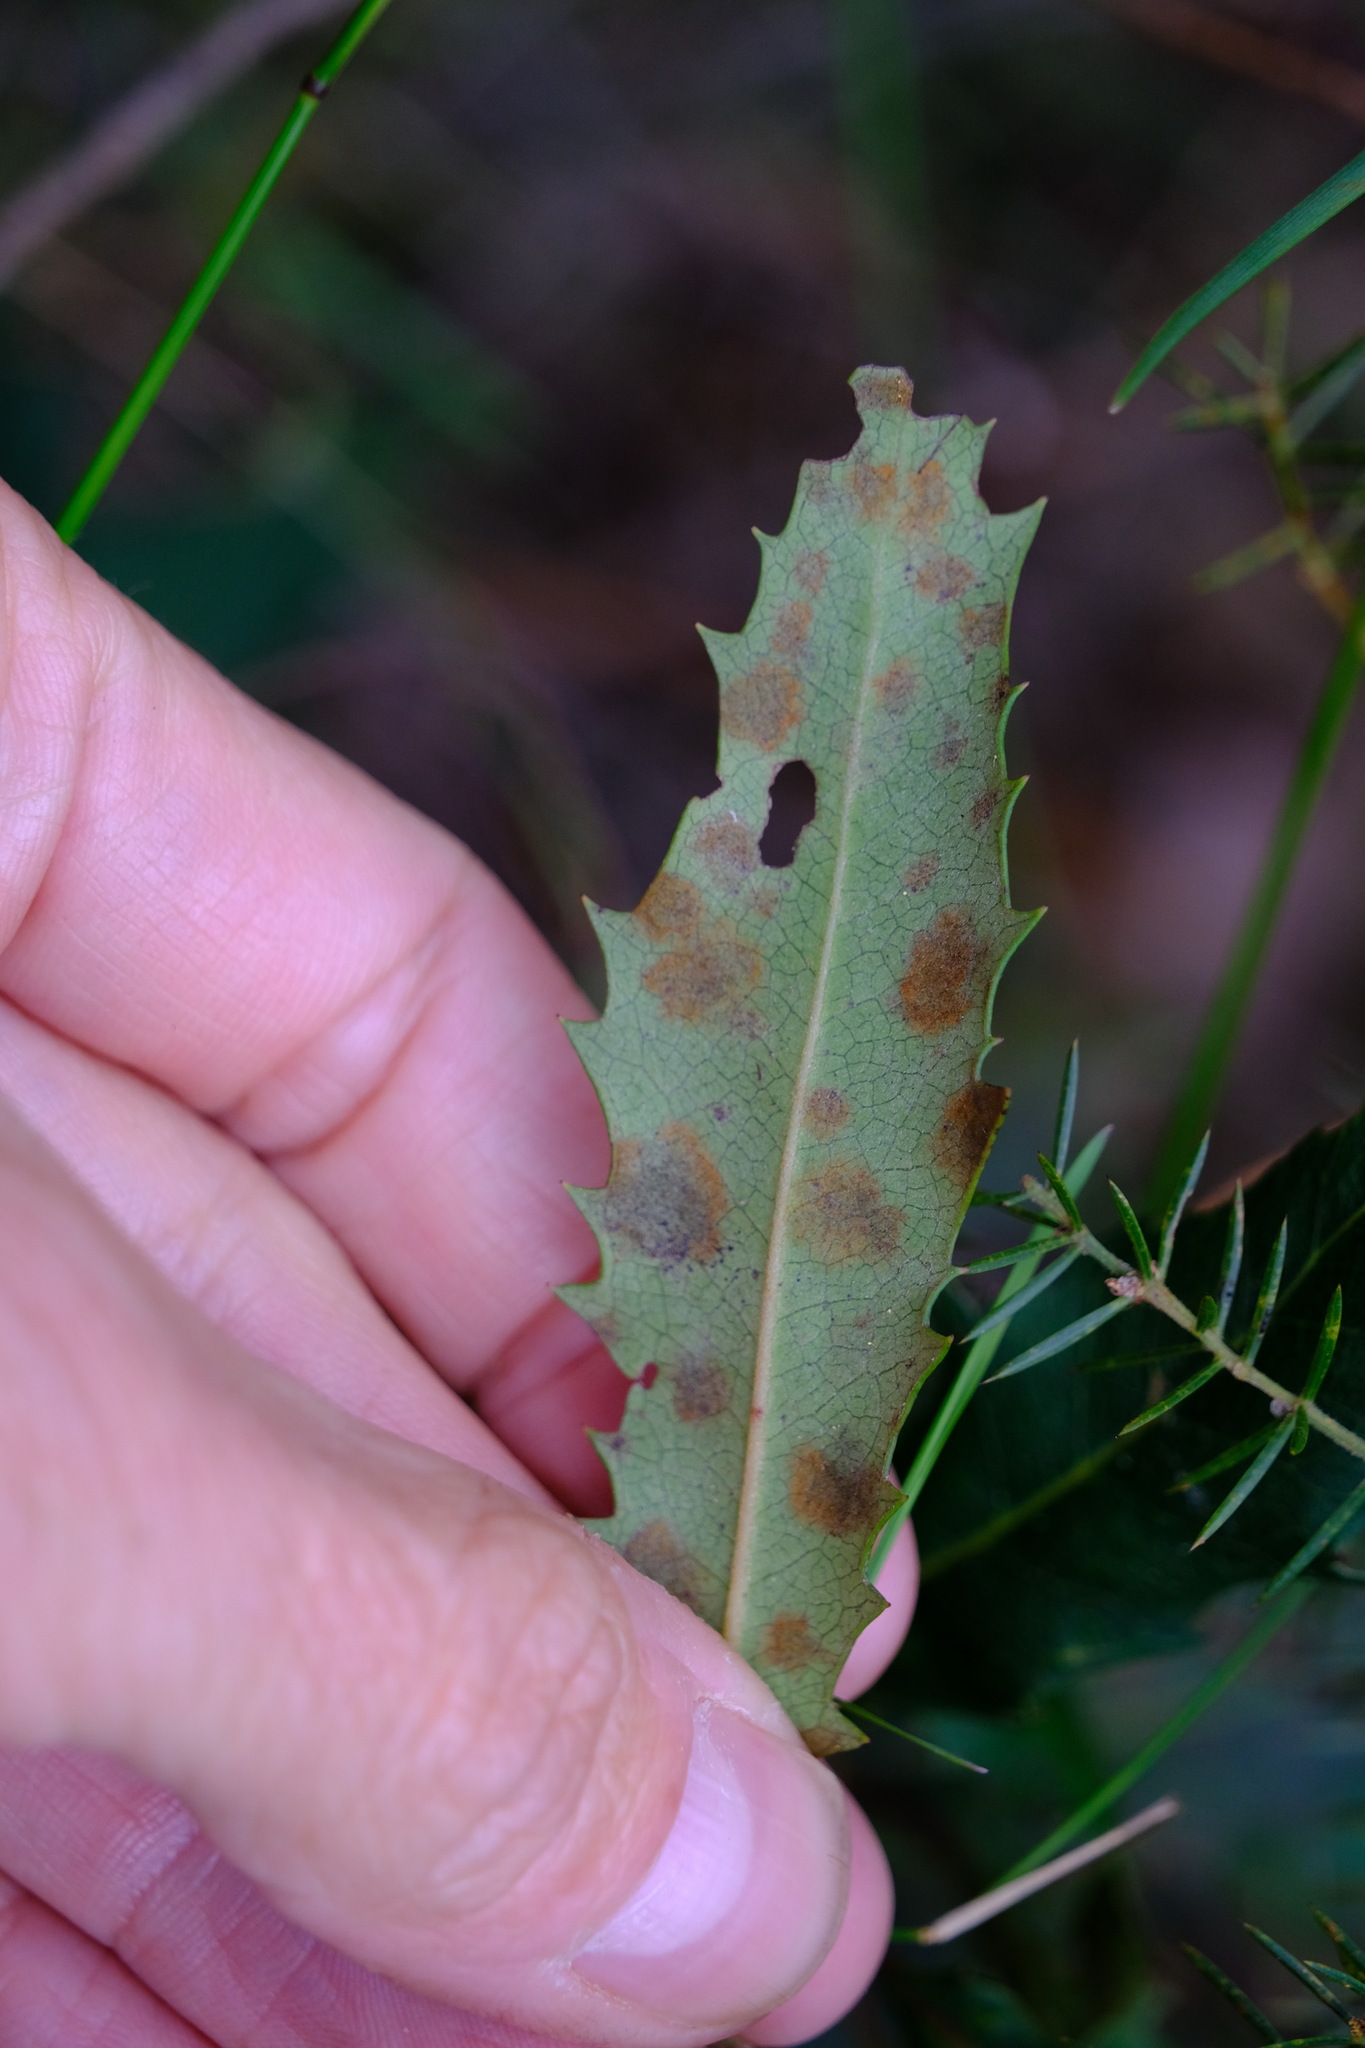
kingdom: Plantae
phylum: Tracheophyta
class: Magnoliopsida
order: Proteales
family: Proteaceae
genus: Lomatia
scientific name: Lomatia fraseri
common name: Forest lomatia
